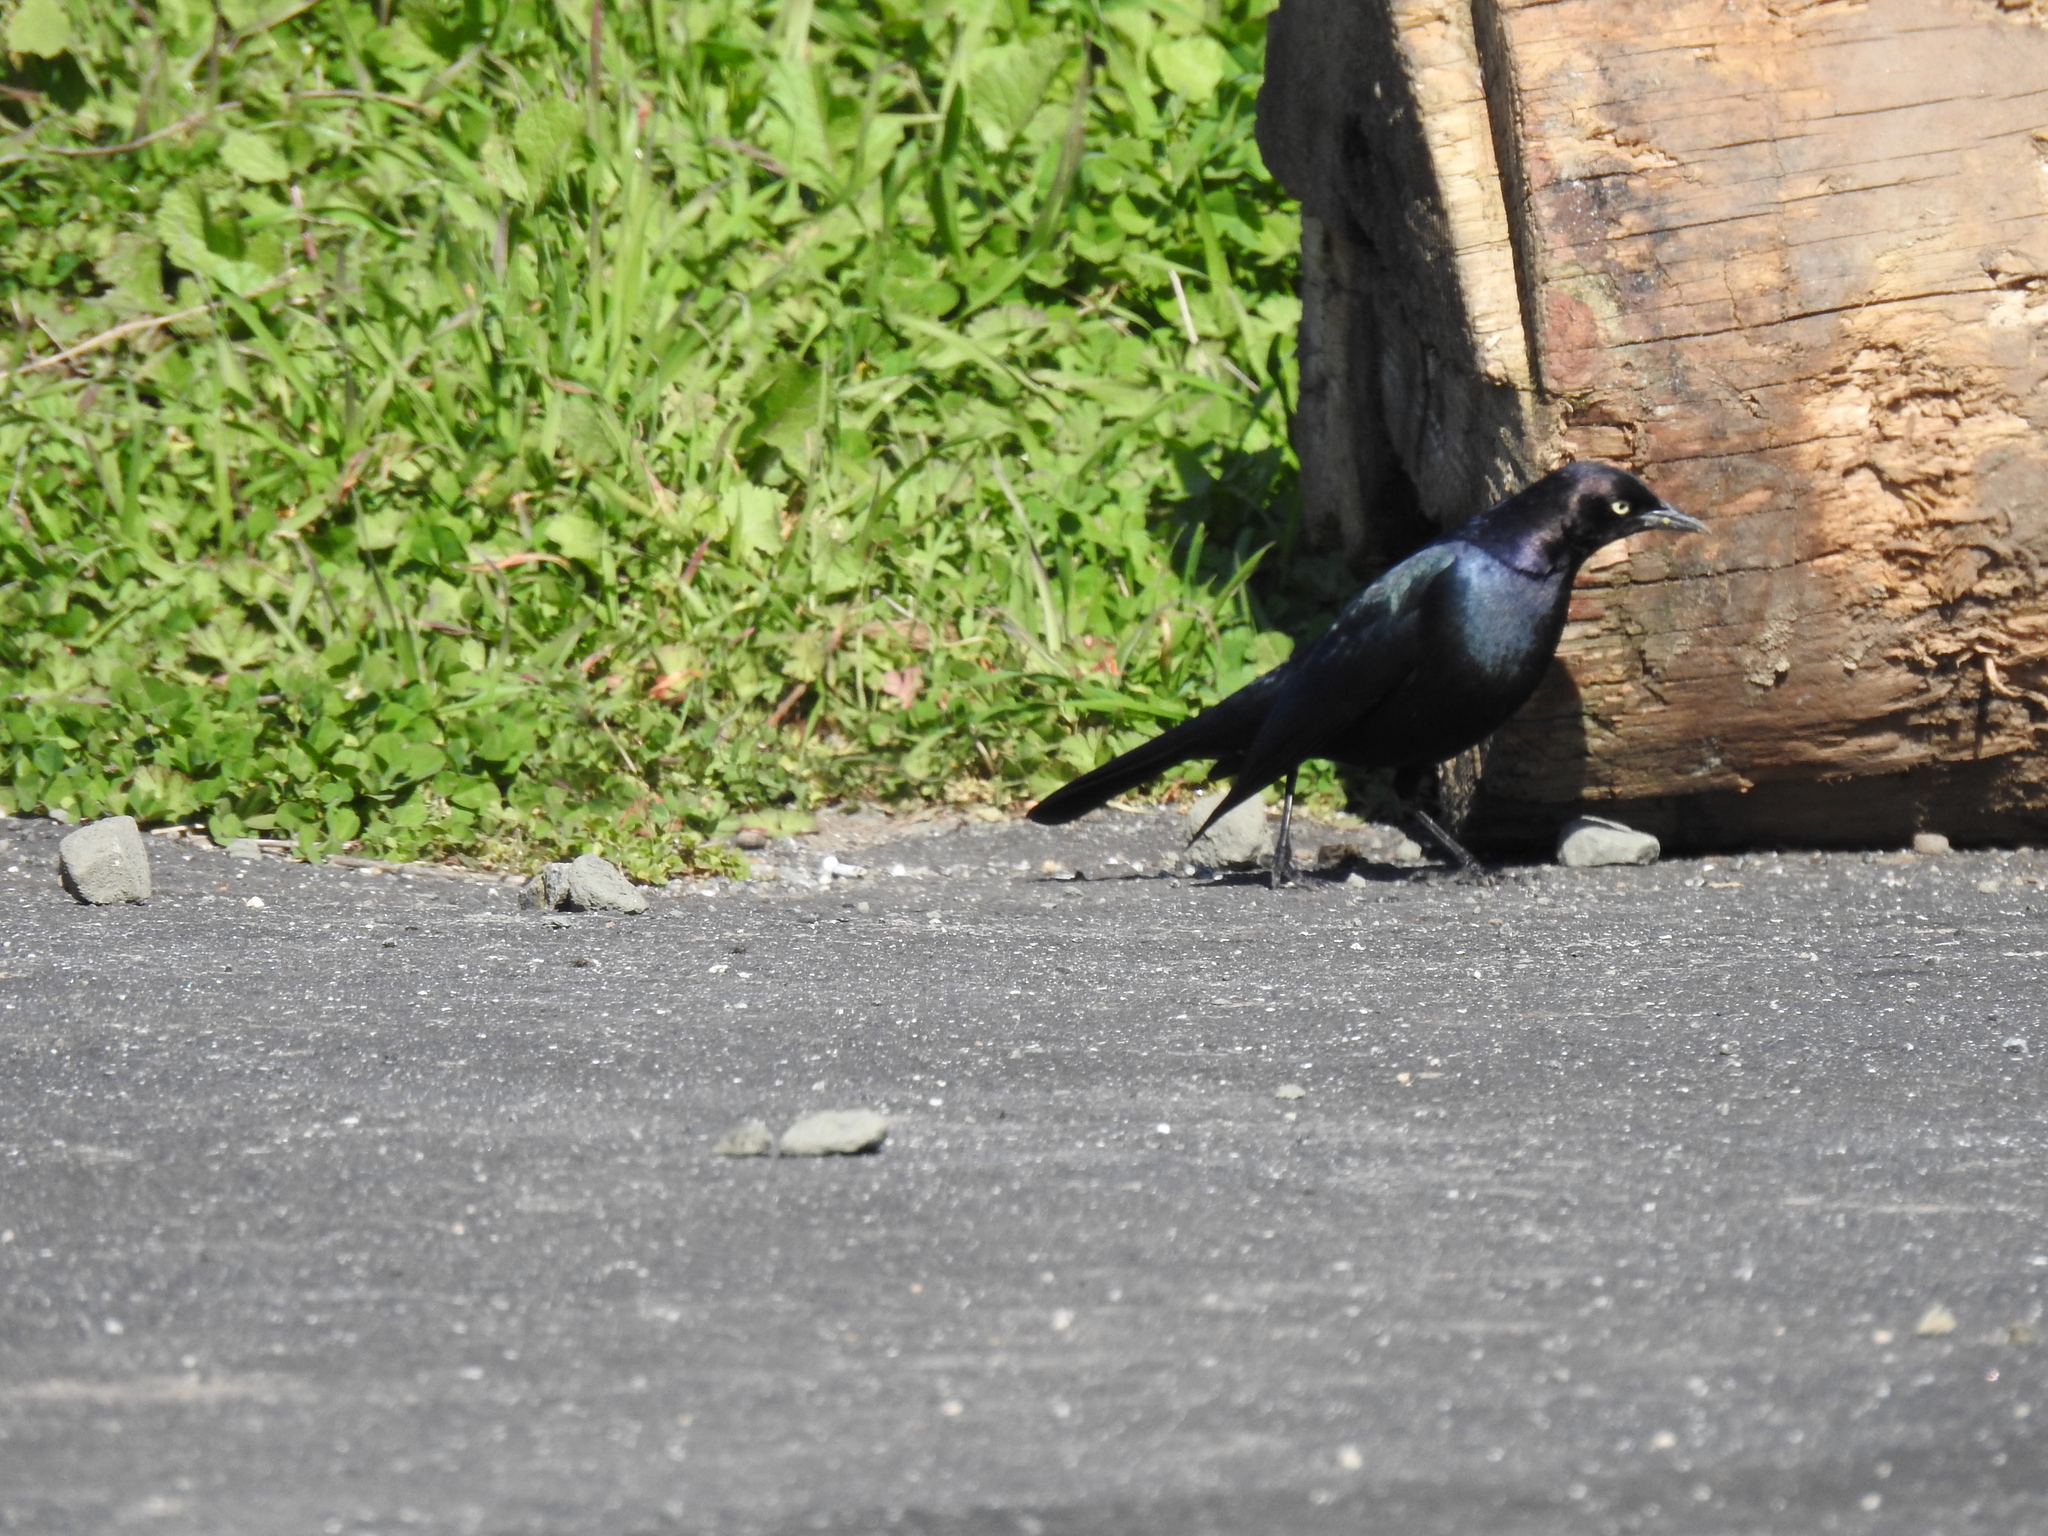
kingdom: Animalia
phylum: Chordata
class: Aves
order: Passeriformes
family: Icteridae
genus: Euphagus
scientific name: Euphagus cyanocephalus
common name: Brewer's blackbird
